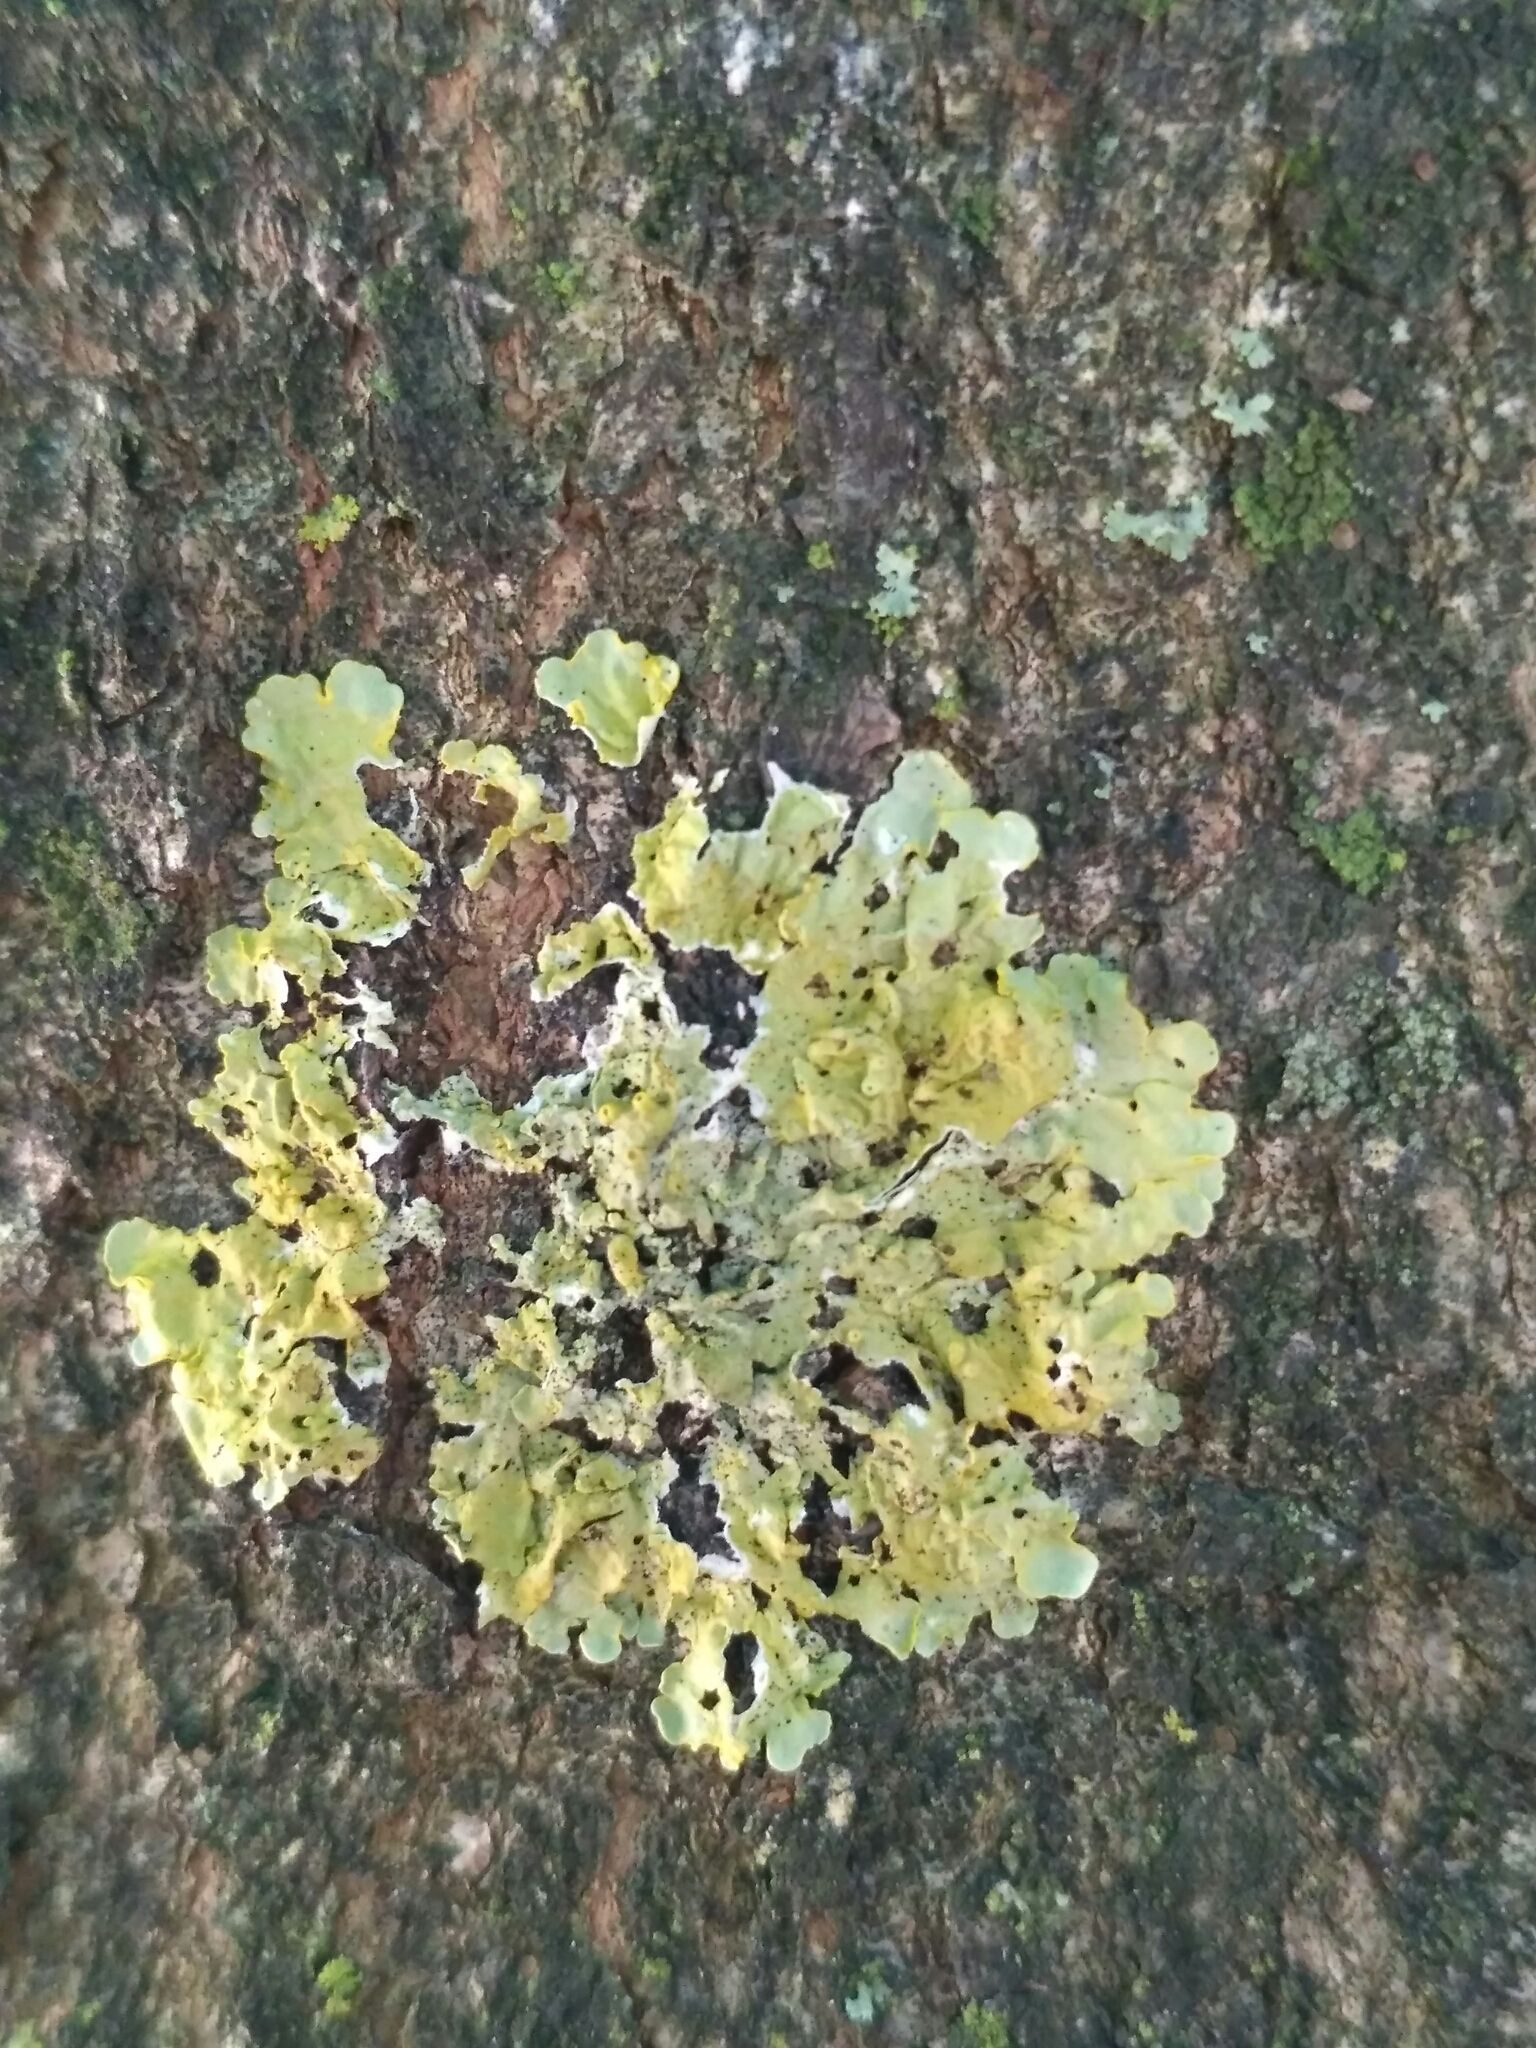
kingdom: Fungi
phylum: Ascomycota
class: Lecanoromycetes
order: Teloschistales
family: Teloschistaceae
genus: Xanthoria
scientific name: Xanthoria parietina
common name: Common orange lichen
